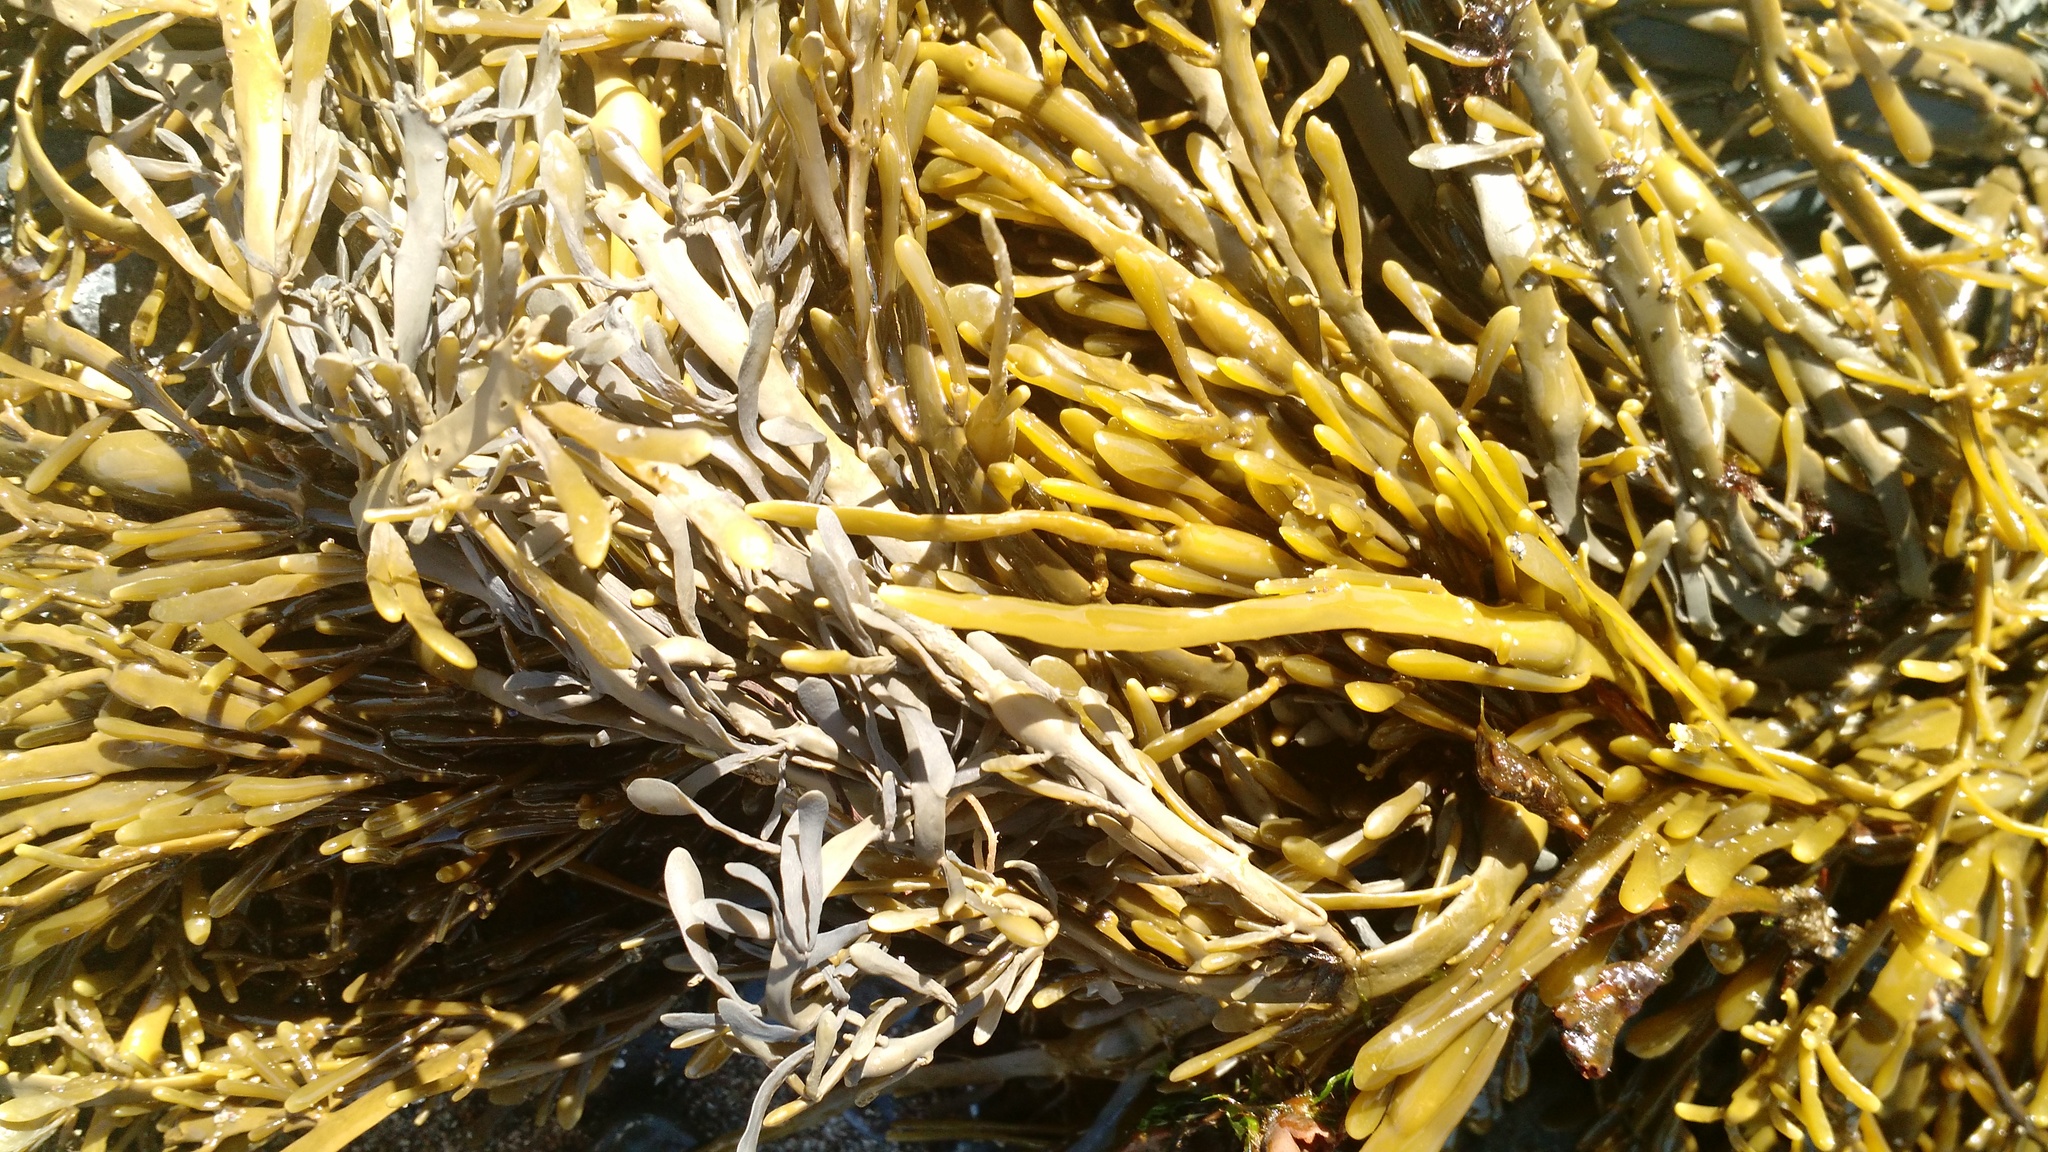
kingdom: Chromista
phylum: Ochrophyta
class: Phaeophyceae
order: Fucales
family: Fucaceae
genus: Ascophyllum
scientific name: Ascophyllum nodosum
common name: Knotted wrack
